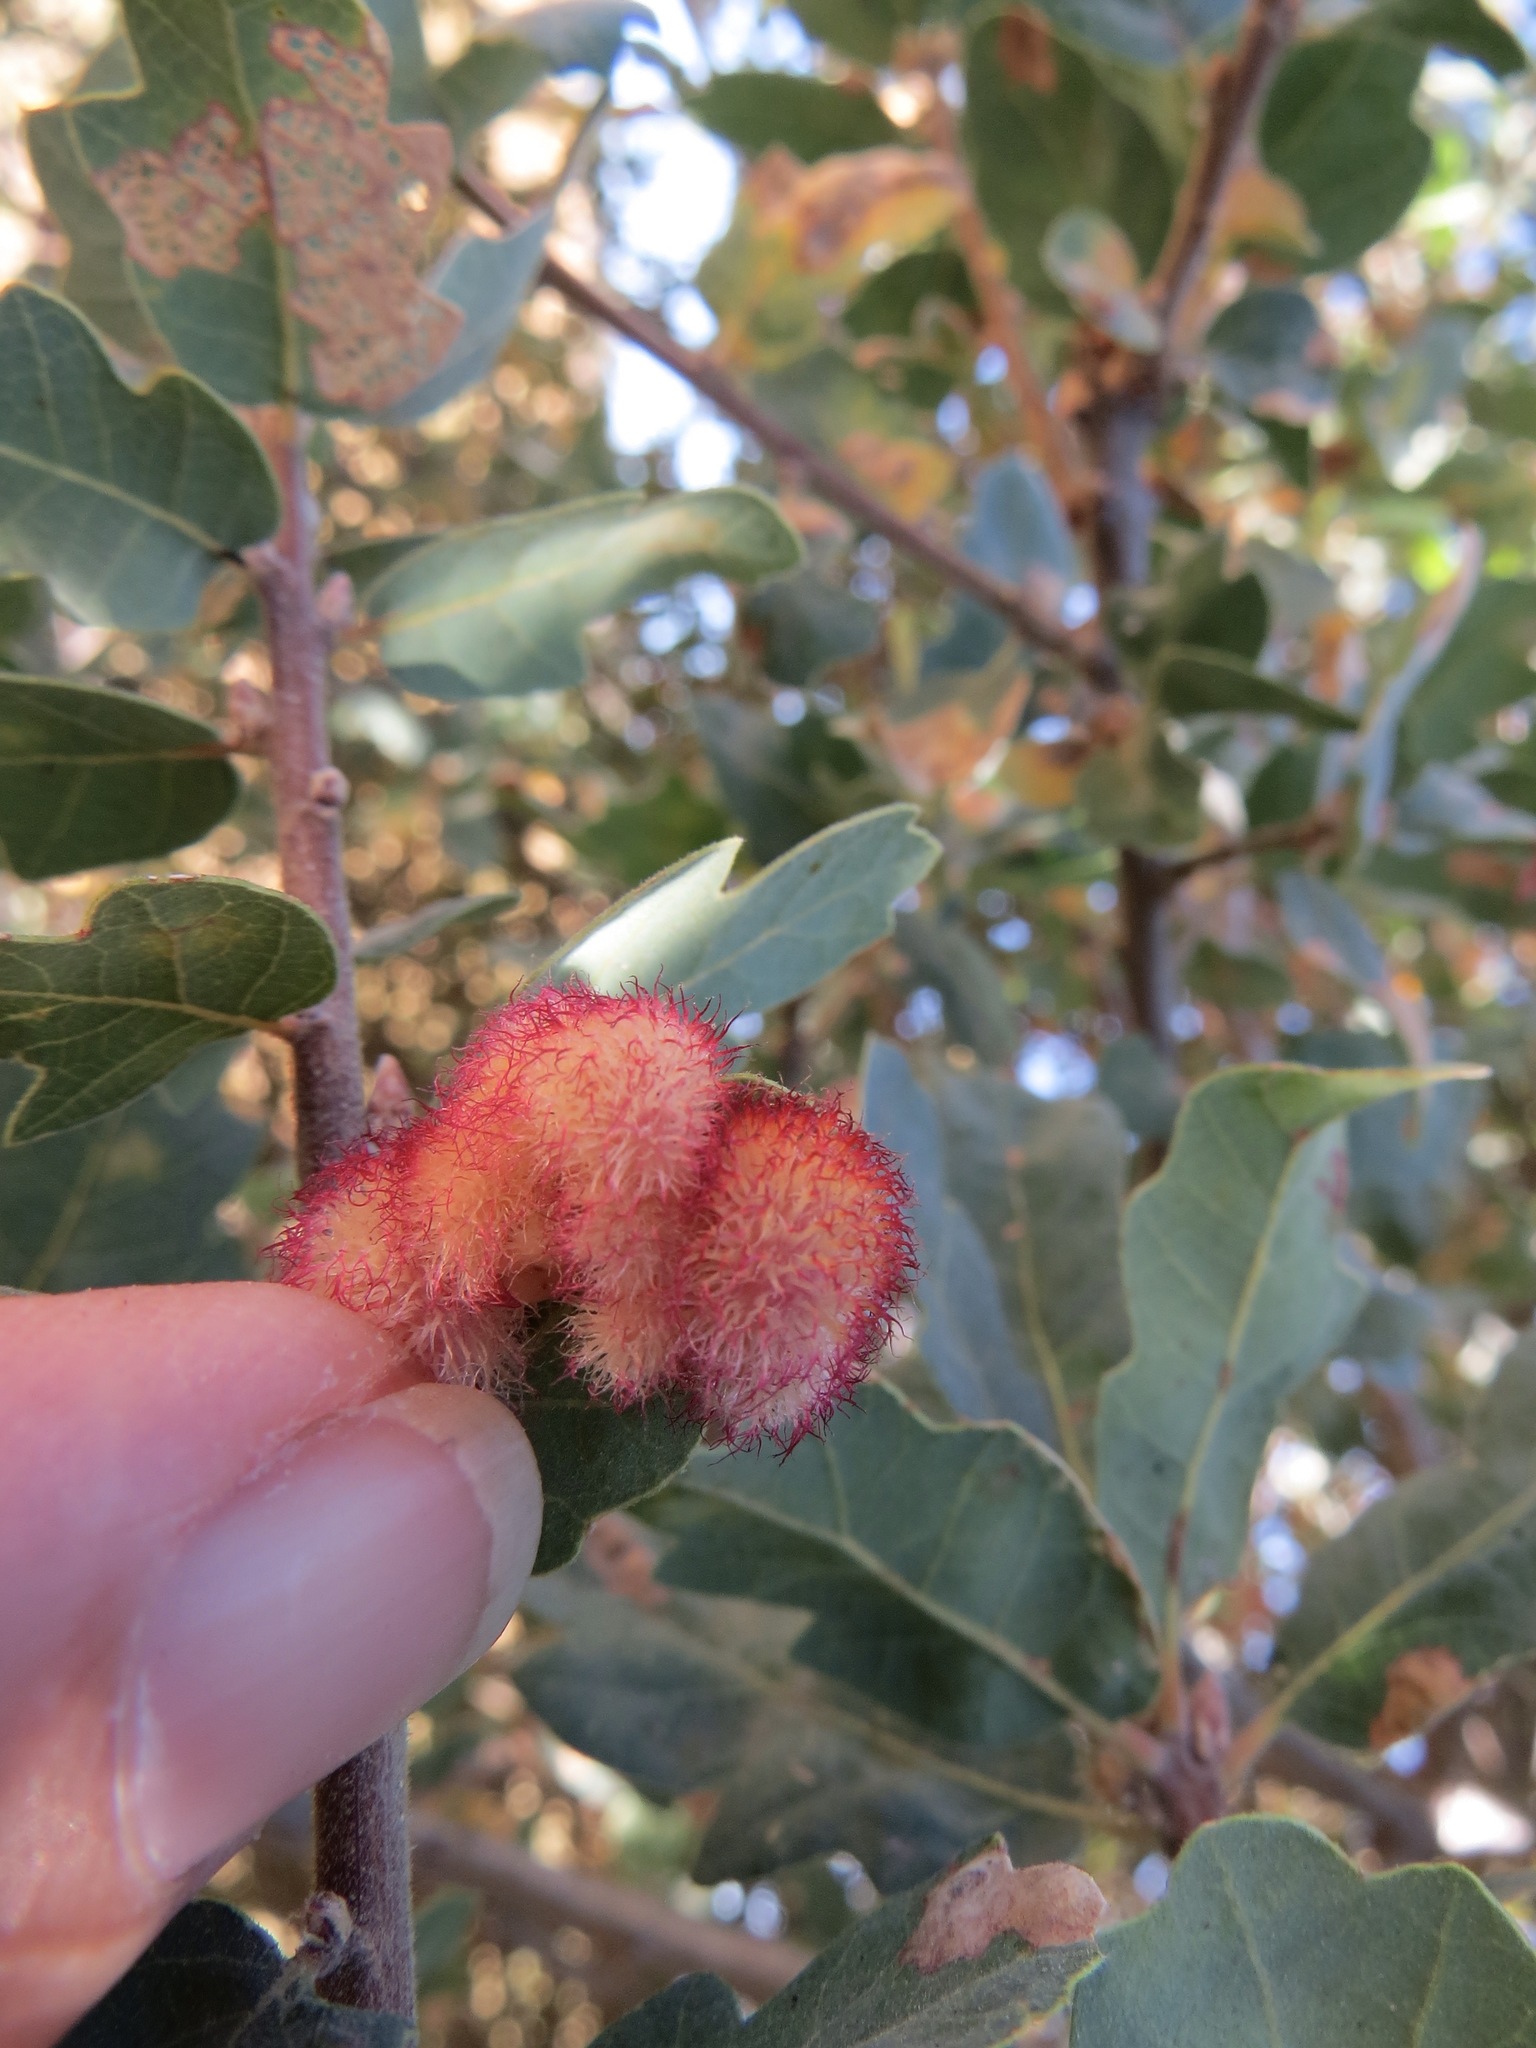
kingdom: Animalia
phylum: Arthropoda
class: Insecta
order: Hymenoptera
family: Cynipidae
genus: Andricus
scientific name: Andricus
